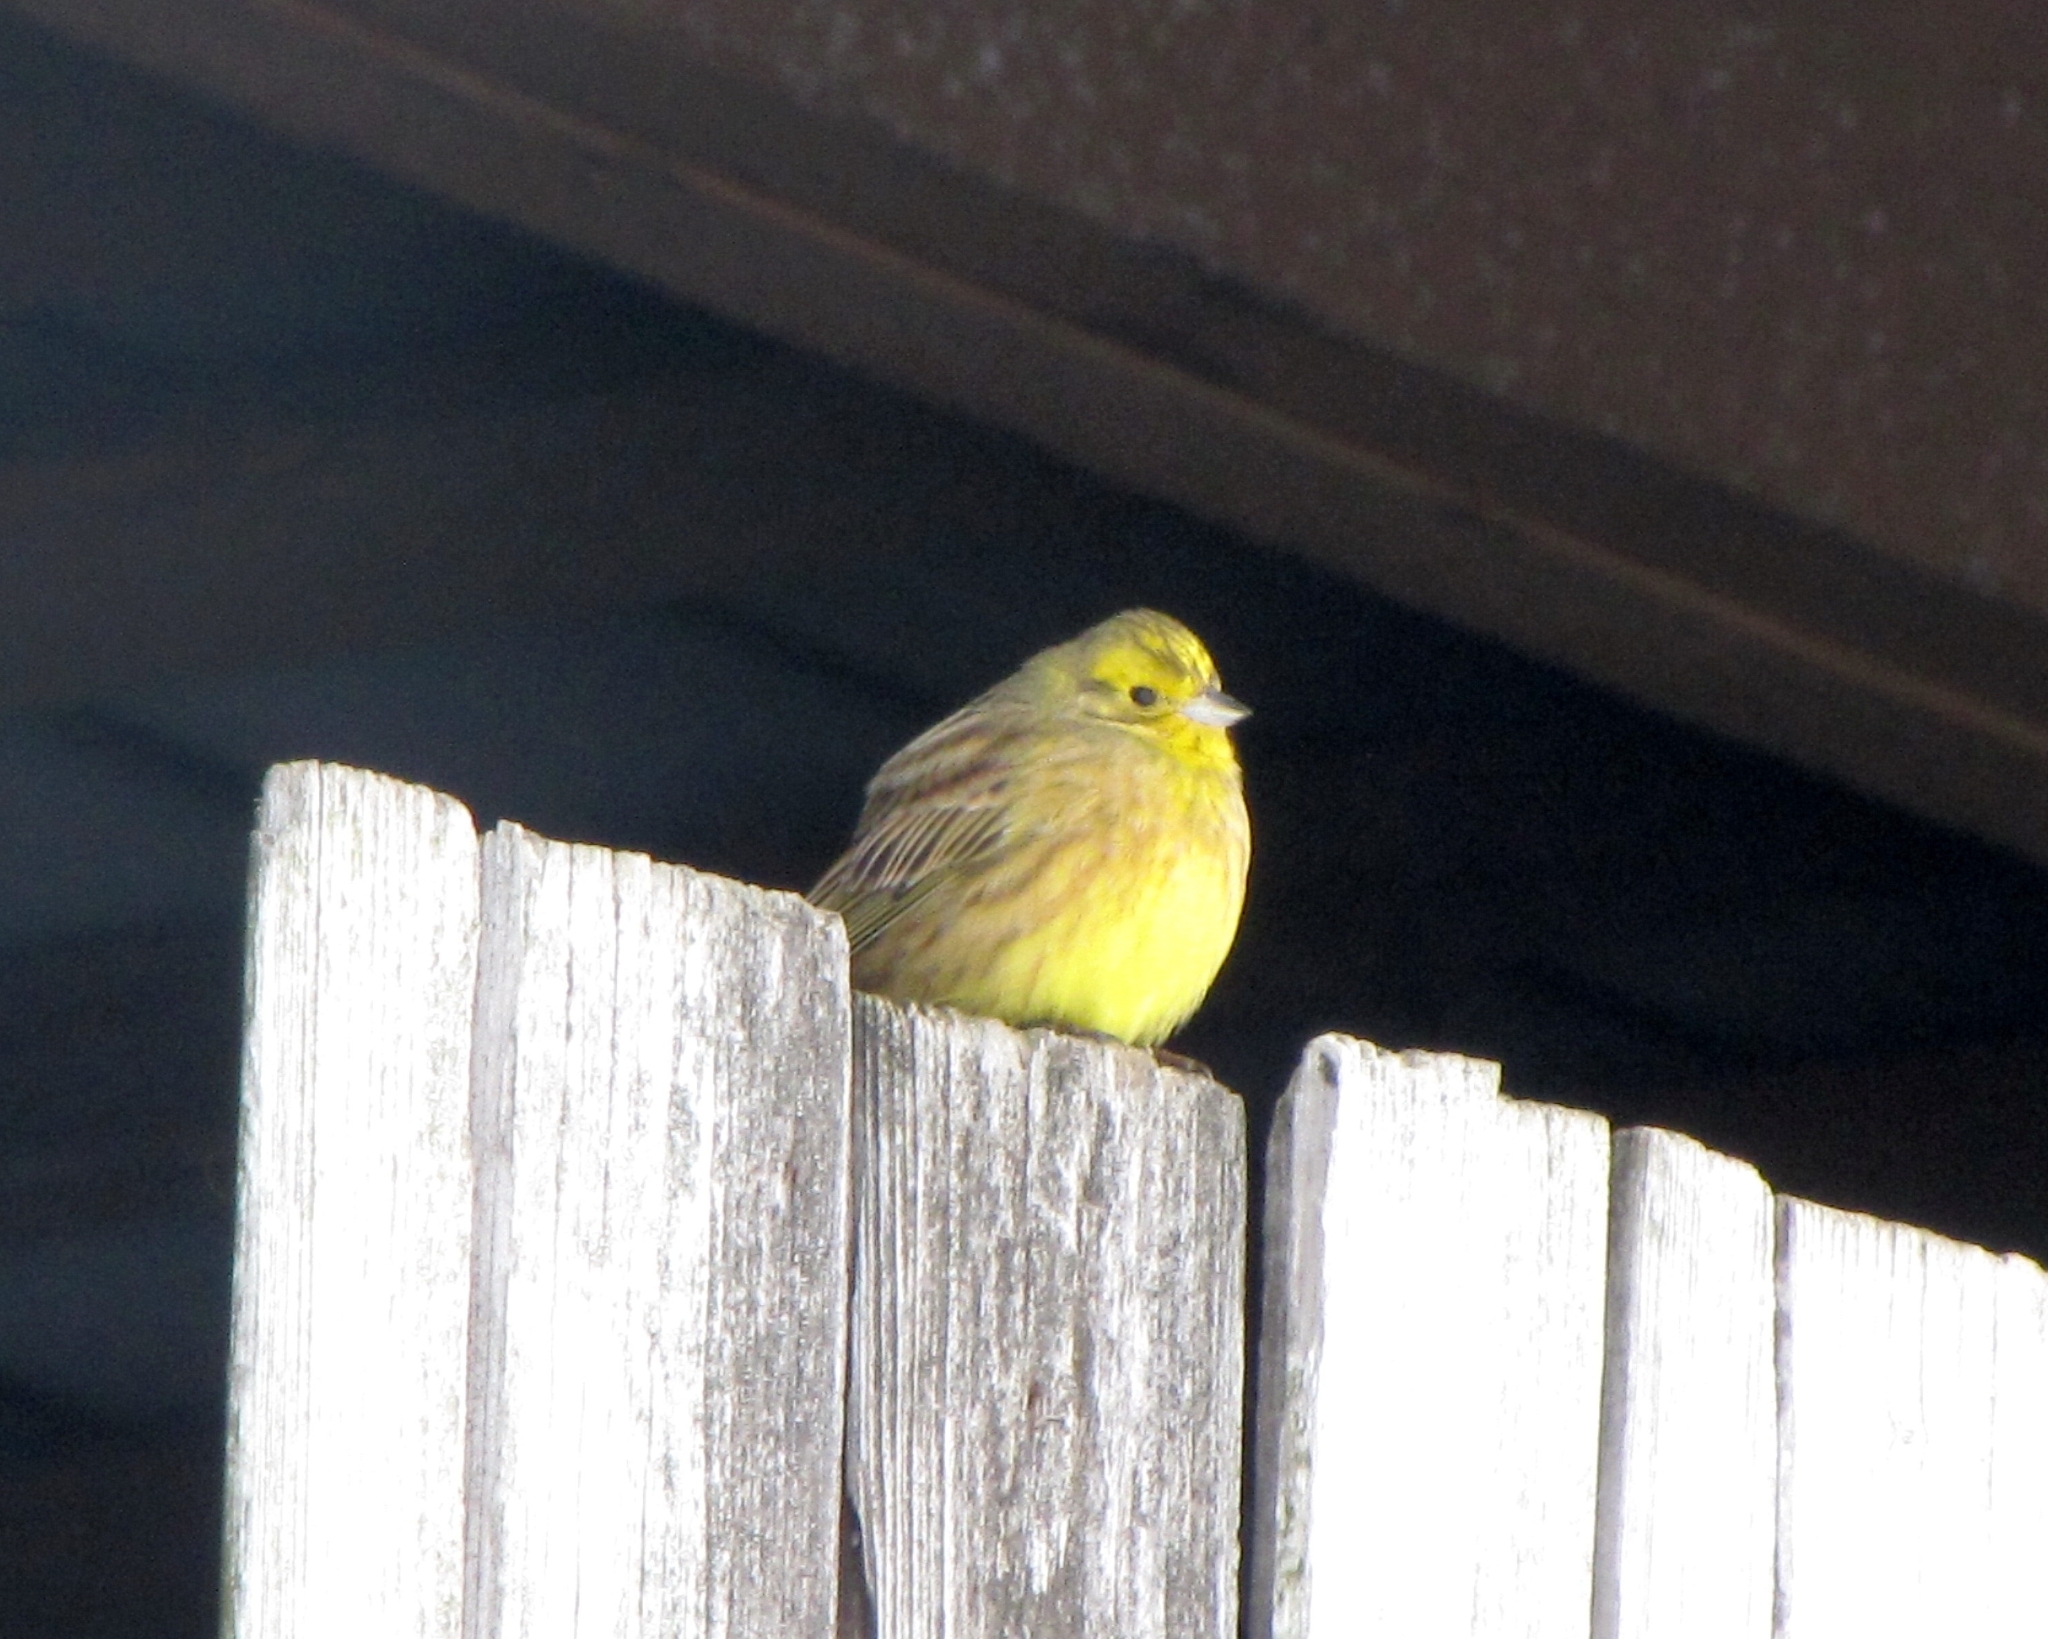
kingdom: Animalia
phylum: Chordata
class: Aves
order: Passeriformes
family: Emberizidae
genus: Emberiza
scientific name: Emberiza citrinella
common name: Yellowhammer
